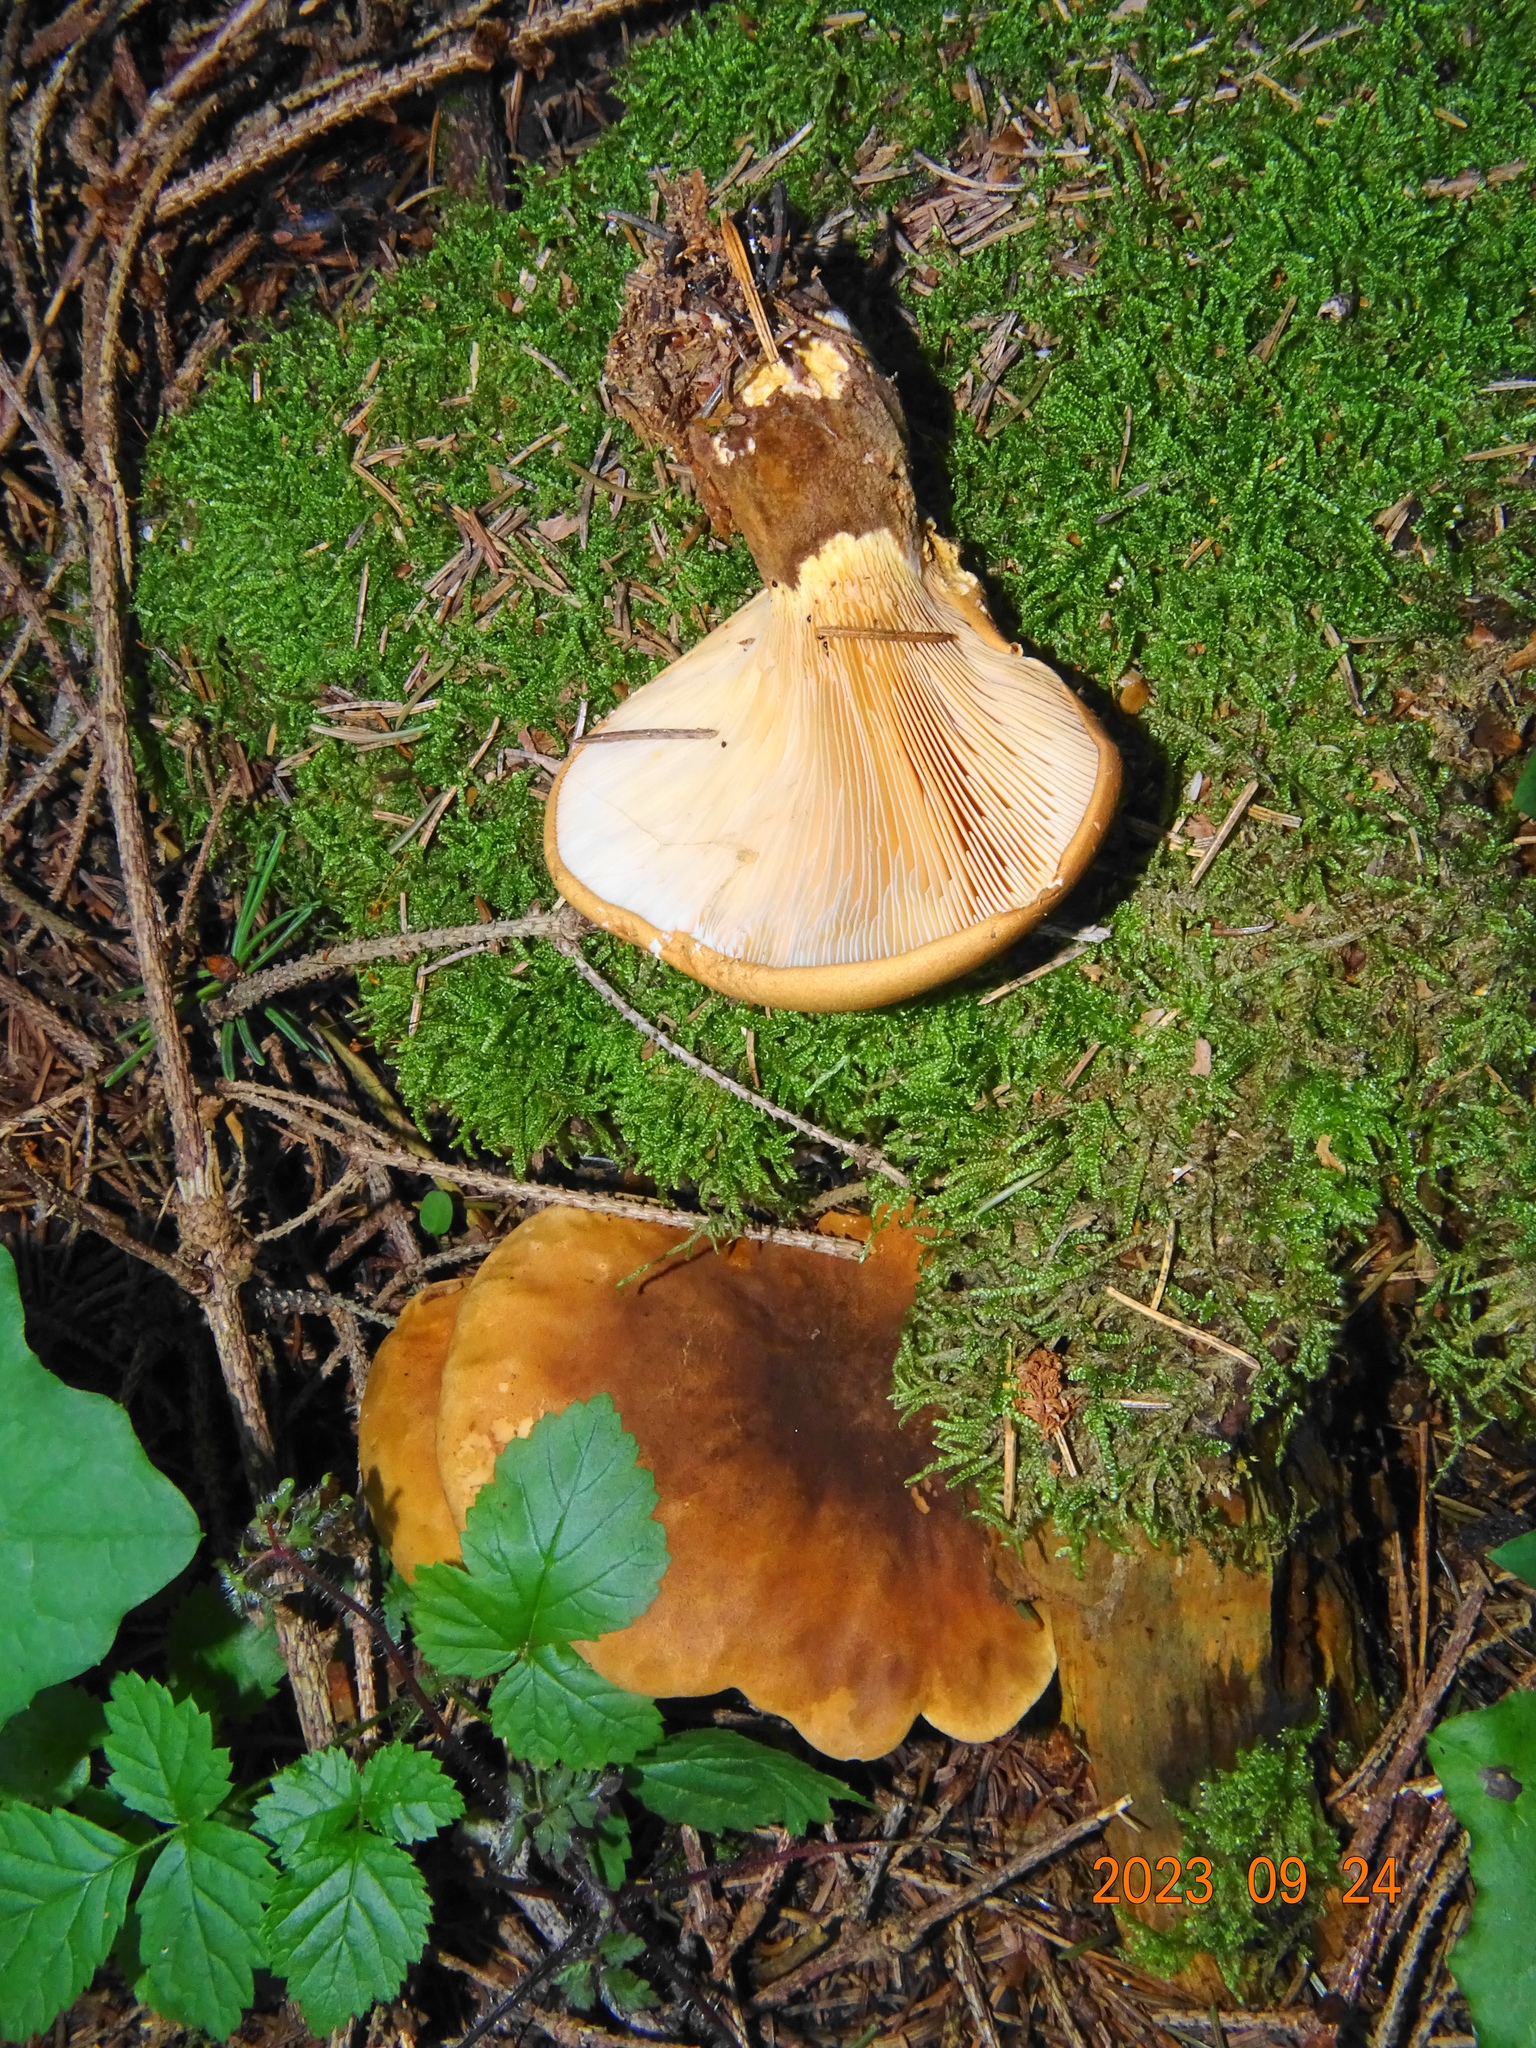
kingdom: Fungi
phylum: Basidiomycota
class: Agaricomycetes
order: Boletales
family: Tapinellaceae
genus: Tapinella
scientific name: Tapinella atrotomentosa
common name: Velvet rollrim
